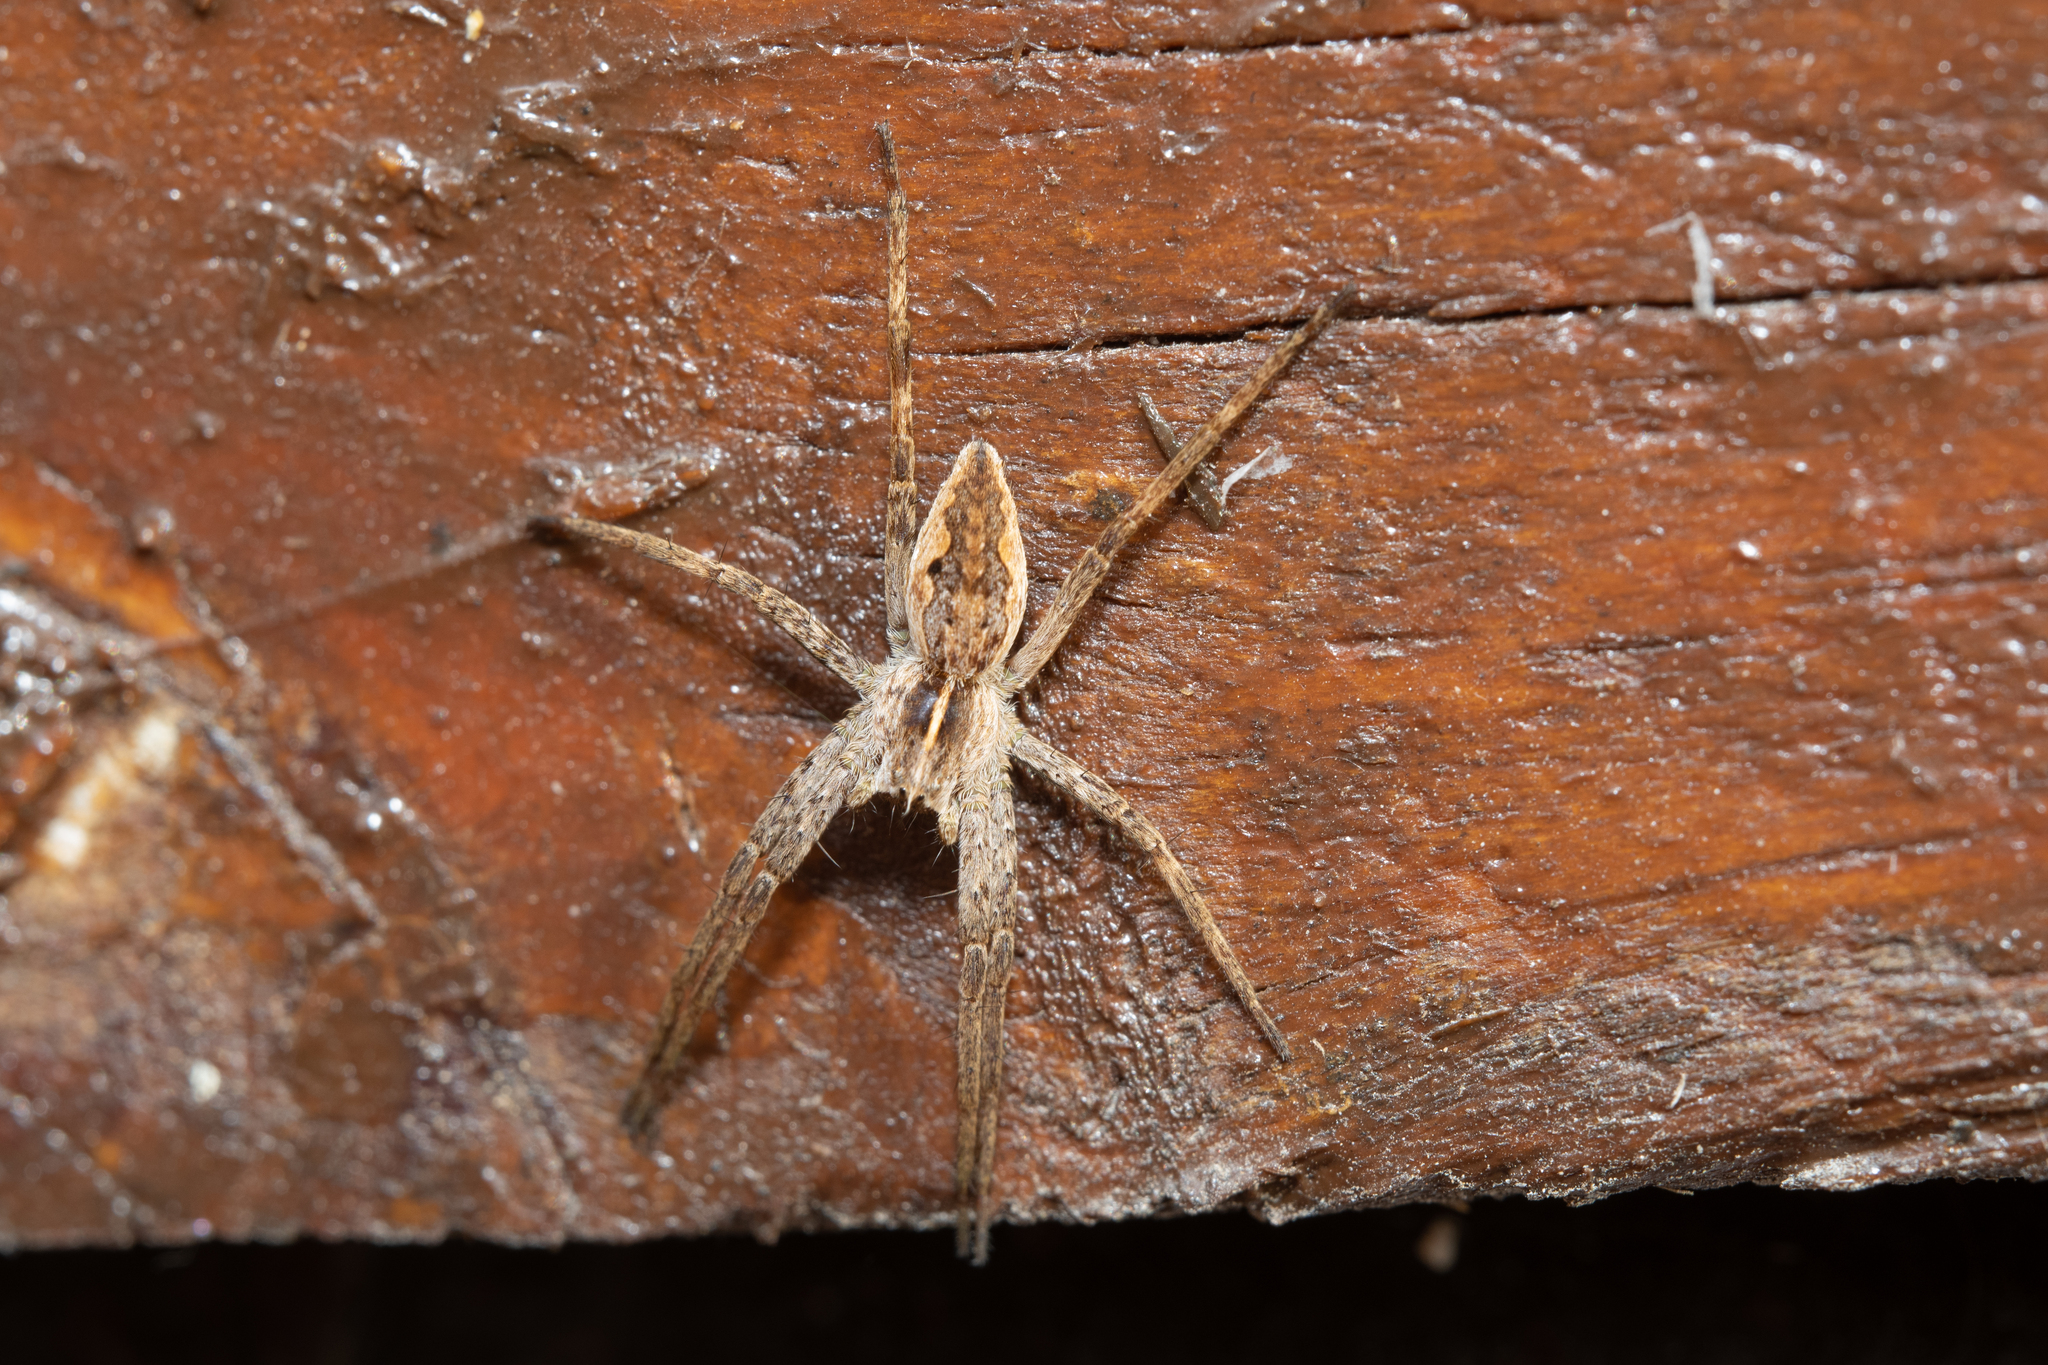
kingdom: Animalia
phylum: Arthropoda
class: Arachnida
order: Araneae
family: Pisauridae
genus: Pisaura
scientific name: Pisaura mirabilis
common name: Tent spider
